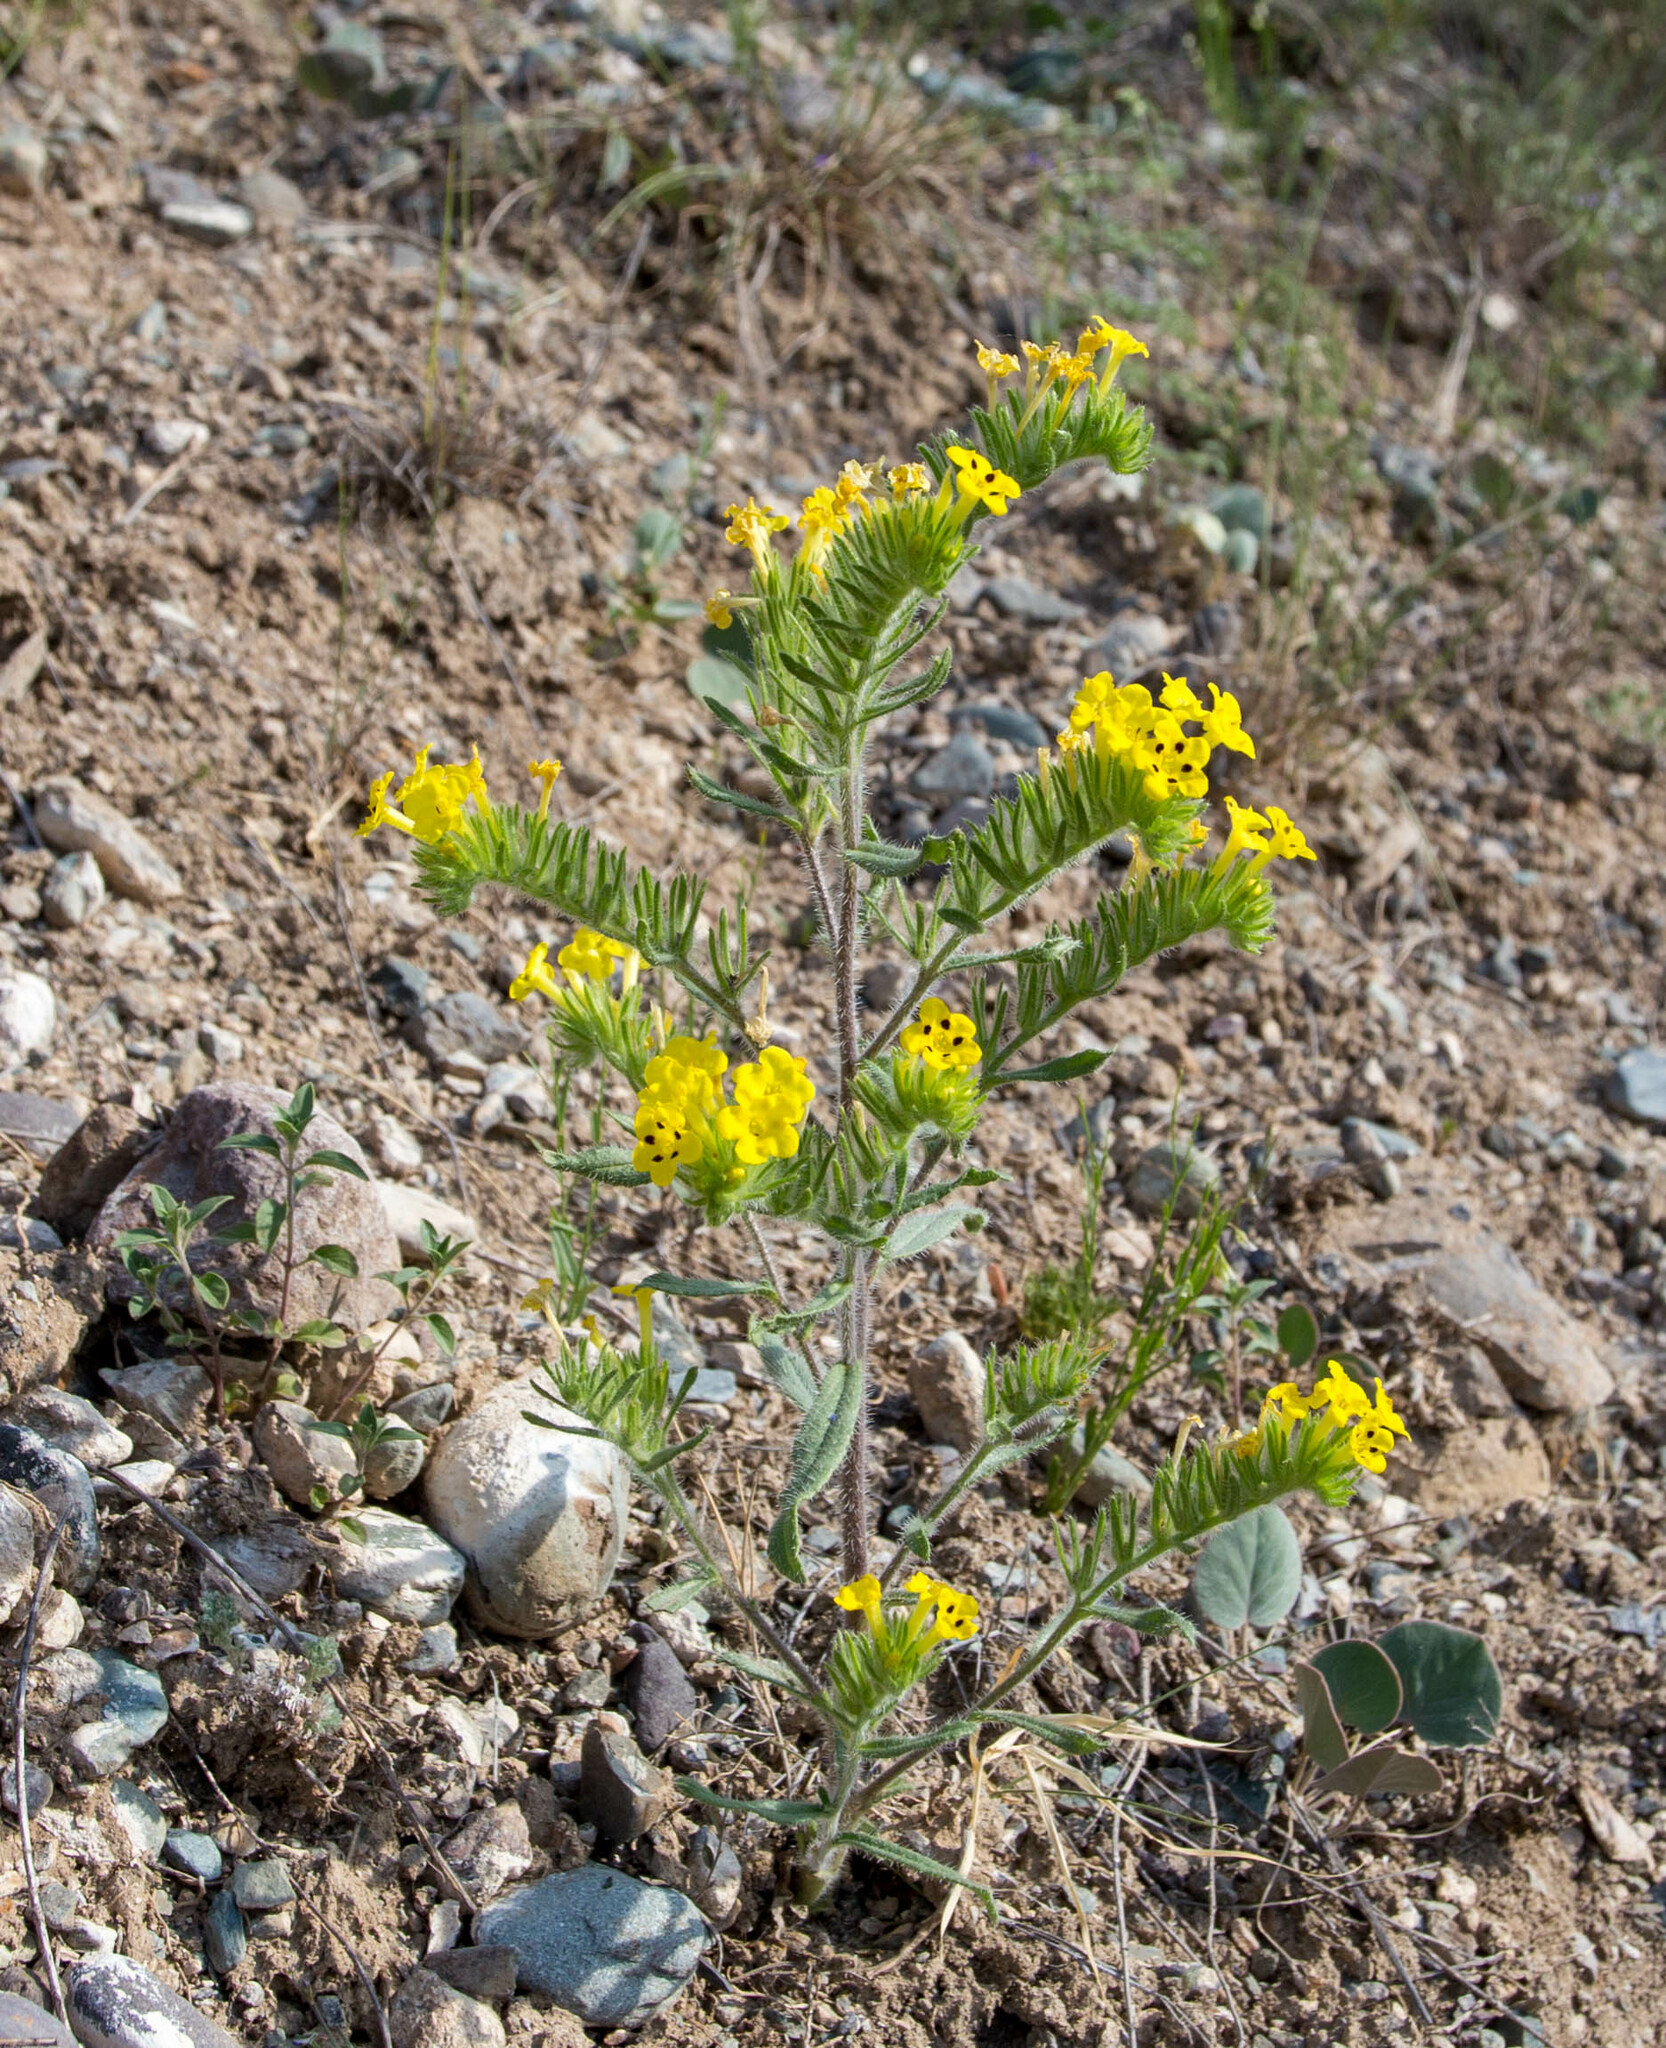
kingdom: Plantae
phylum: Tracheophyta
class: Magnoliopsida
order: Boraginales
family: Boraginaceae
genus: Arnebia
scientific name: Arnebia guttata
